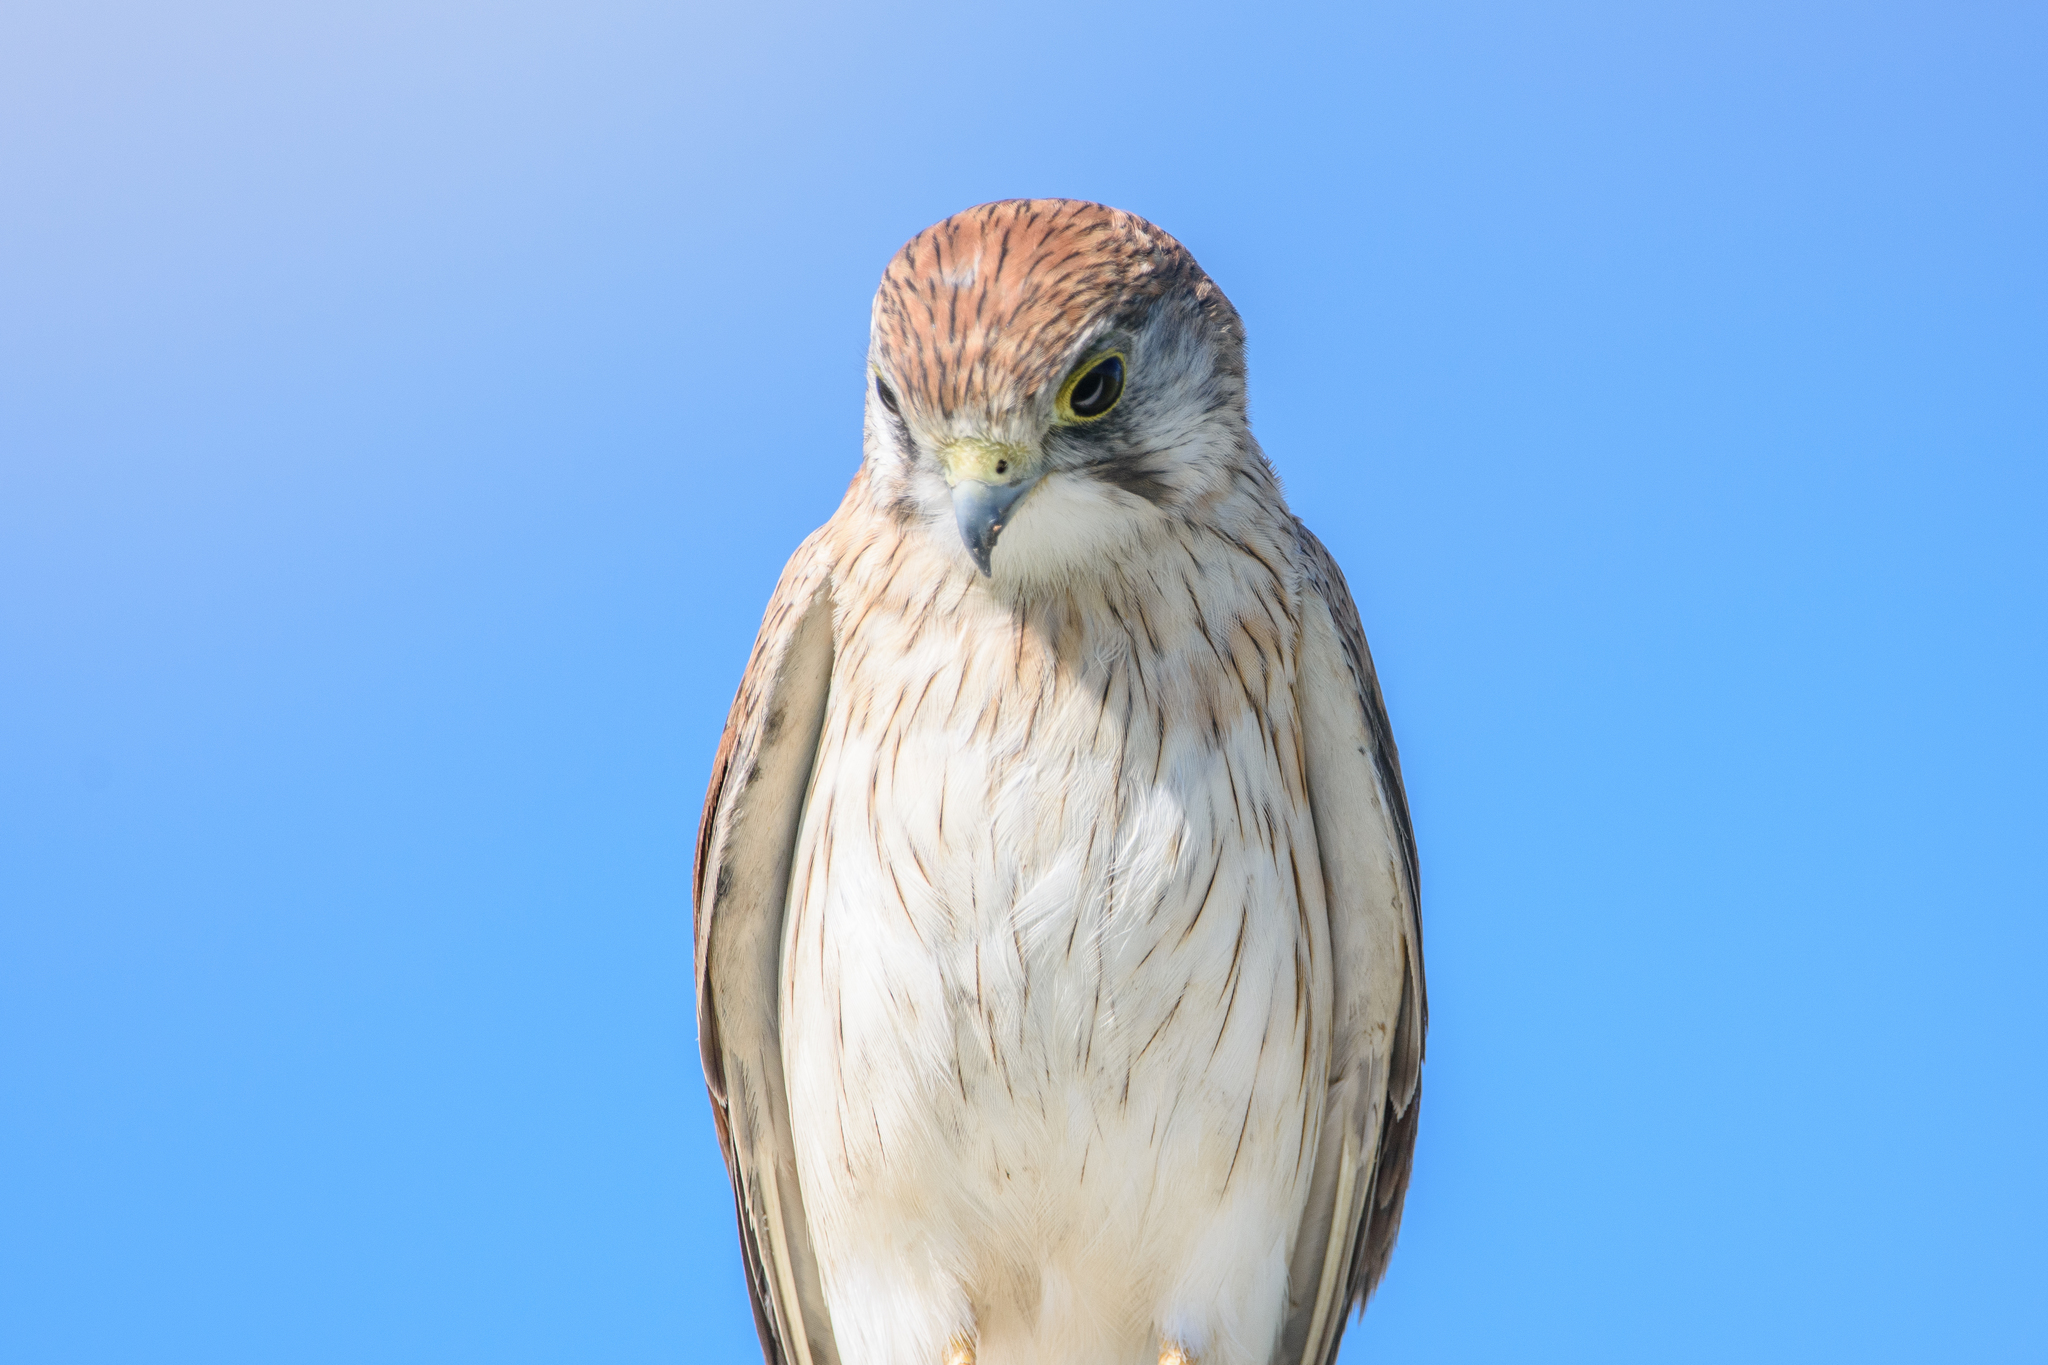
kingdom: Animalia
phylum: Chordata
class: Aves
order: Falconiformes
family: Falconidae
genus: Falco
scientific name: Falco cenchroides
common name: Nankeen kestrel
